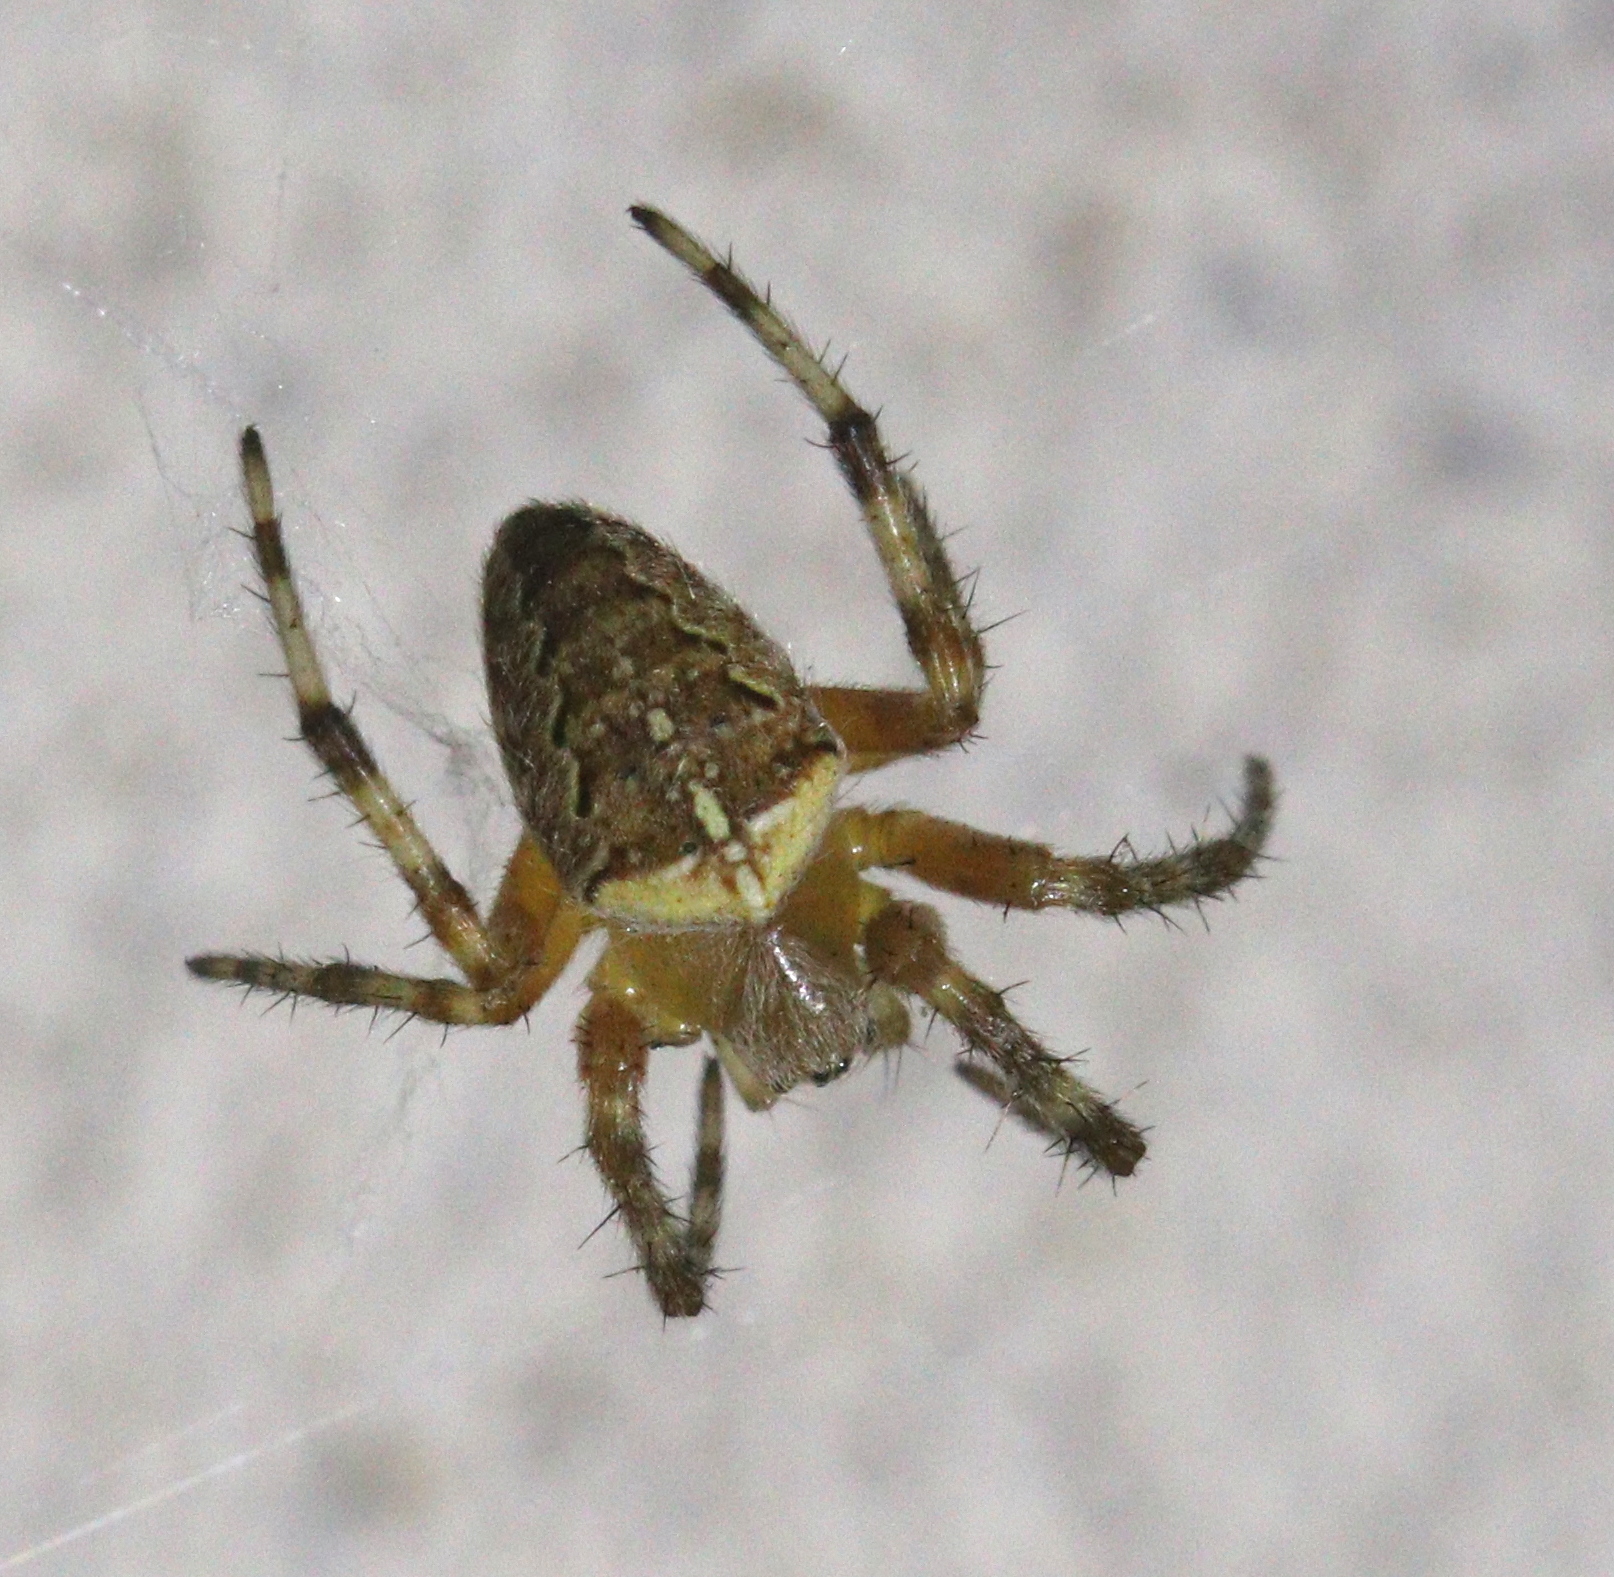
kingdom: Animalia
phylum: Arthropoda
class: Arachnida
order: Araneae
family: Araneidae
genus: Araneus
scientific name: Araneus diadematus
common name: Cross orbweaver
